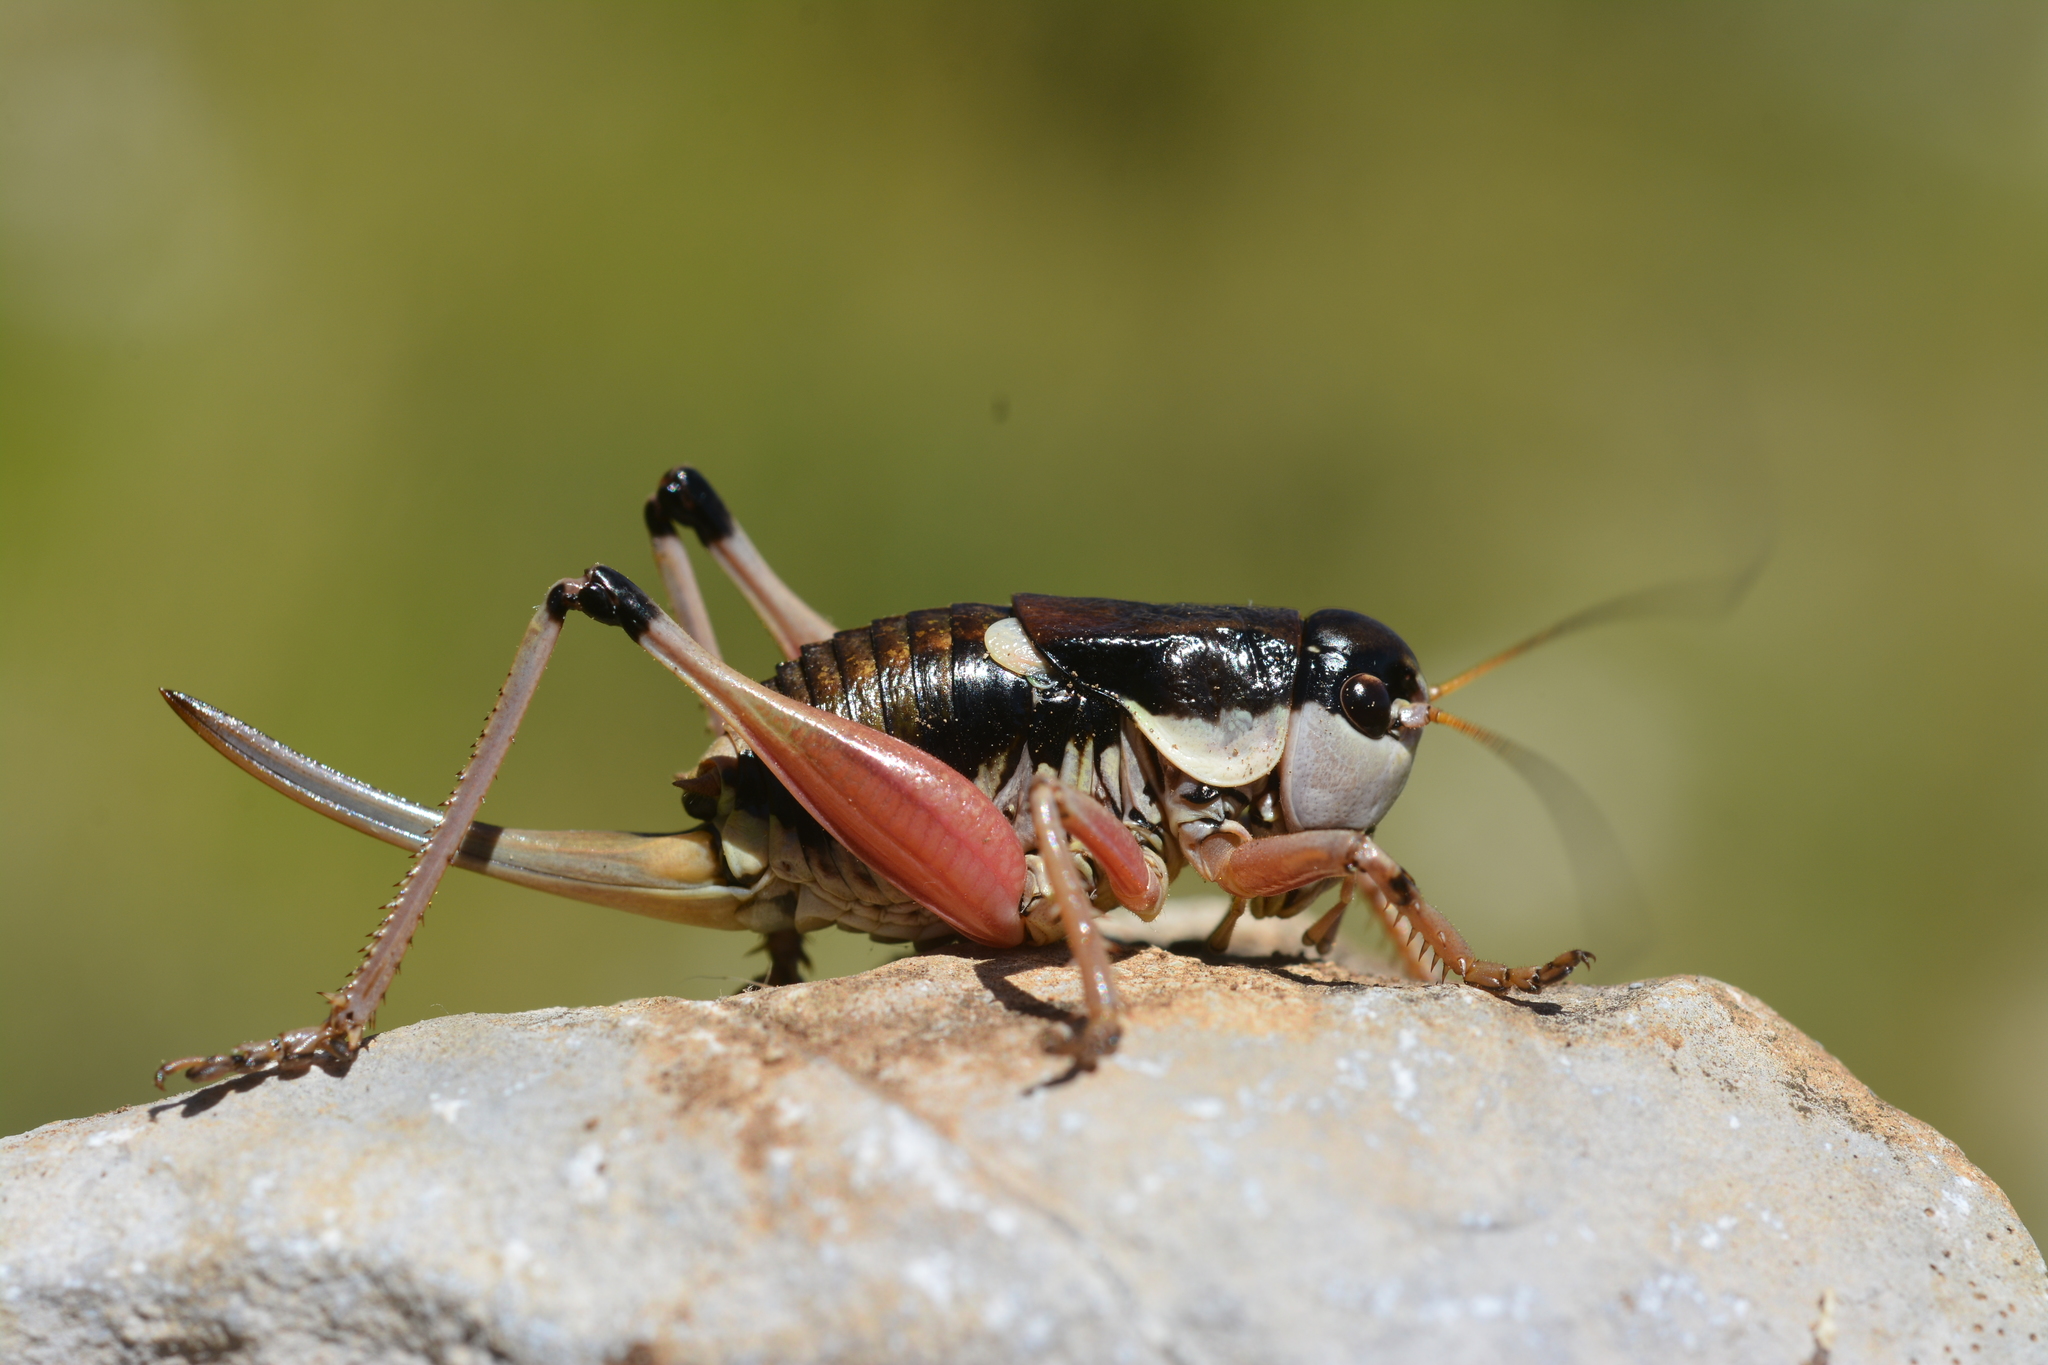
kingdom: Animalia
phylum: Arthropoda
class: Insecta
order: Orthoptera
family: Tettigoniidae
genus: Anonconotus
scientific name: Anonconotus ghilianii
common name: Ghiliani's alpine bush-cricket
